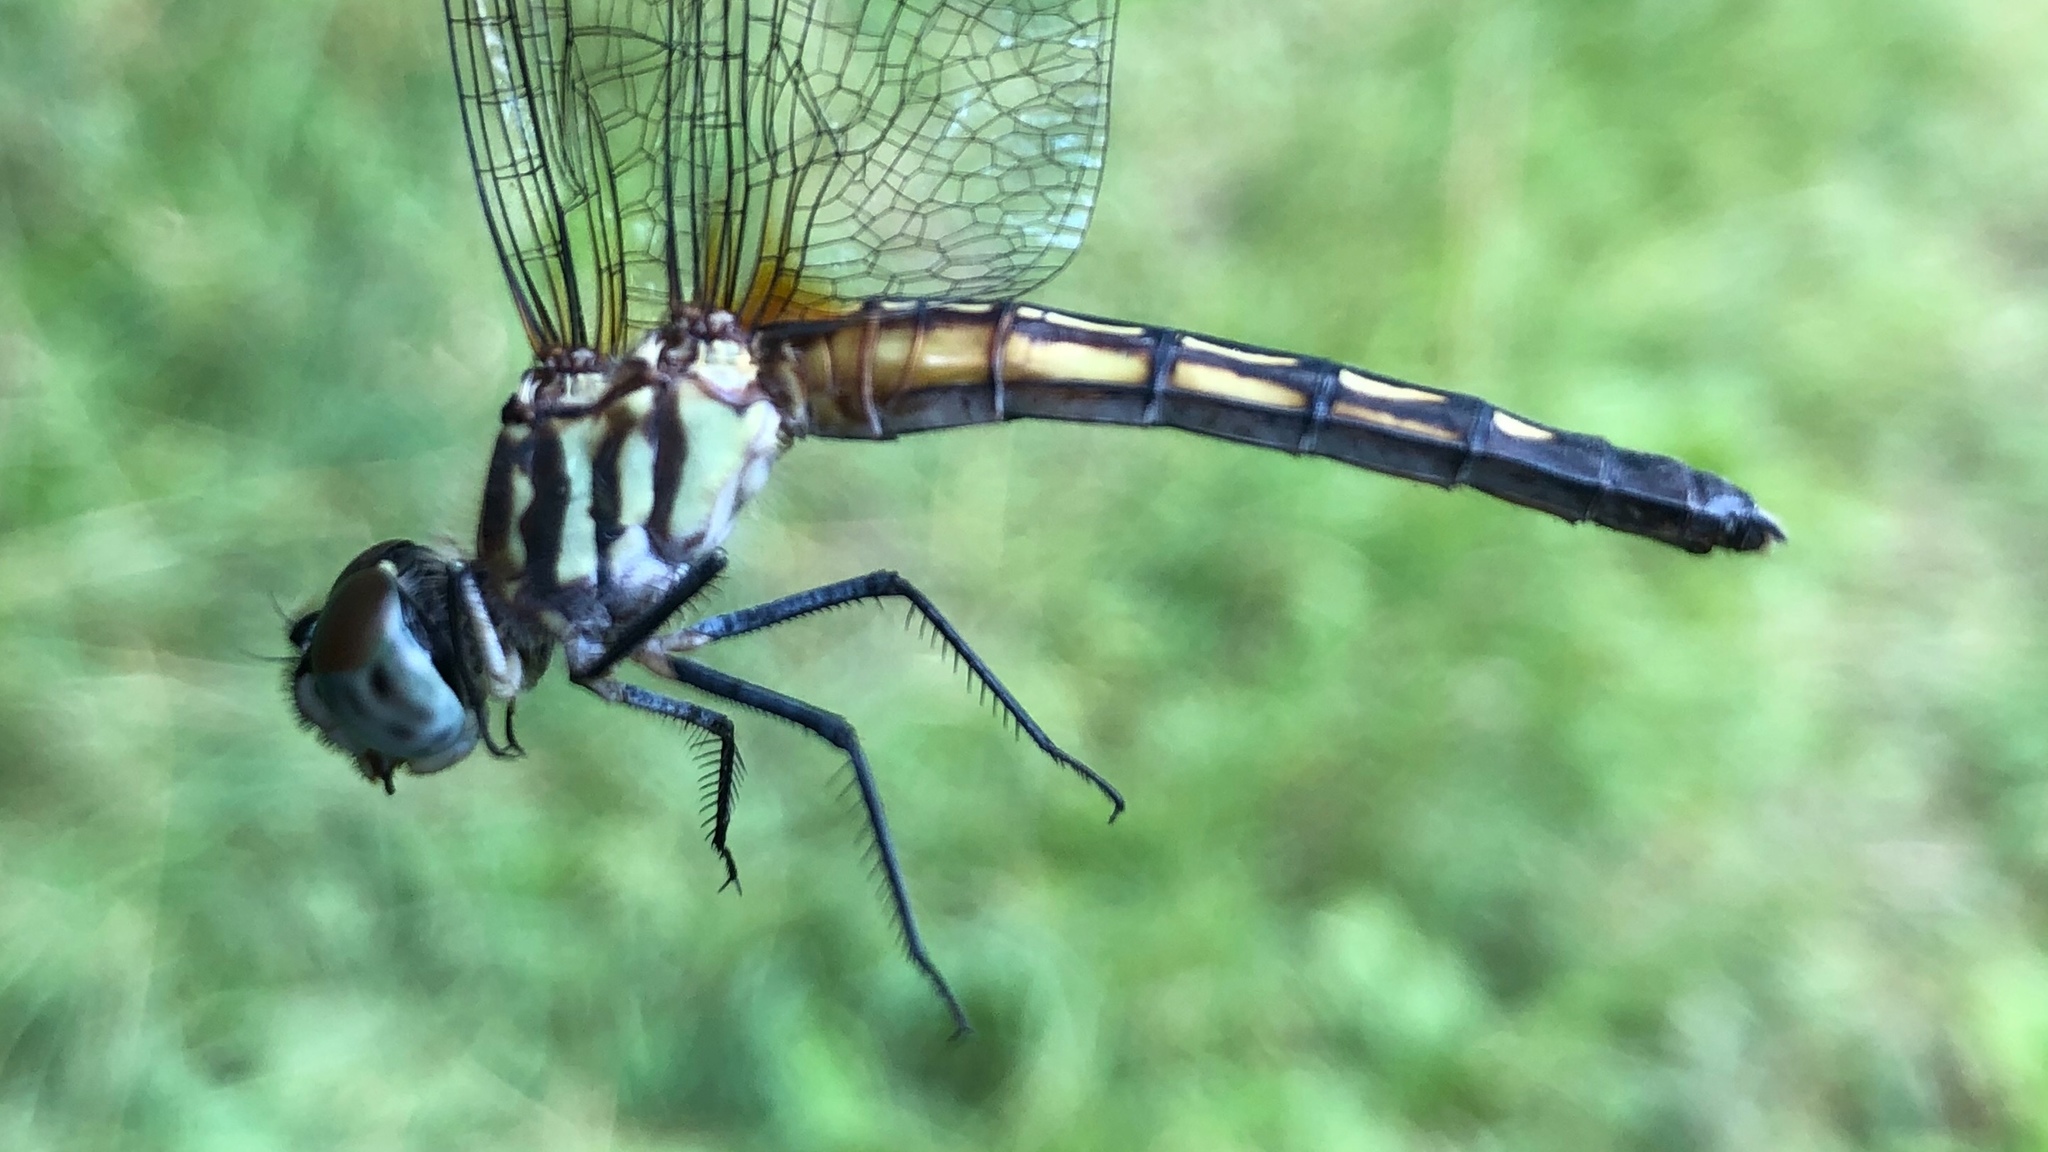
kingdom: Animalia
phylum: Arthropoda
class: Insecta
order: Odonata
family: Libellulidae
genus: Pachydiplax
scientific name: Pachydiplax longipennis
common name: Blue dasher
